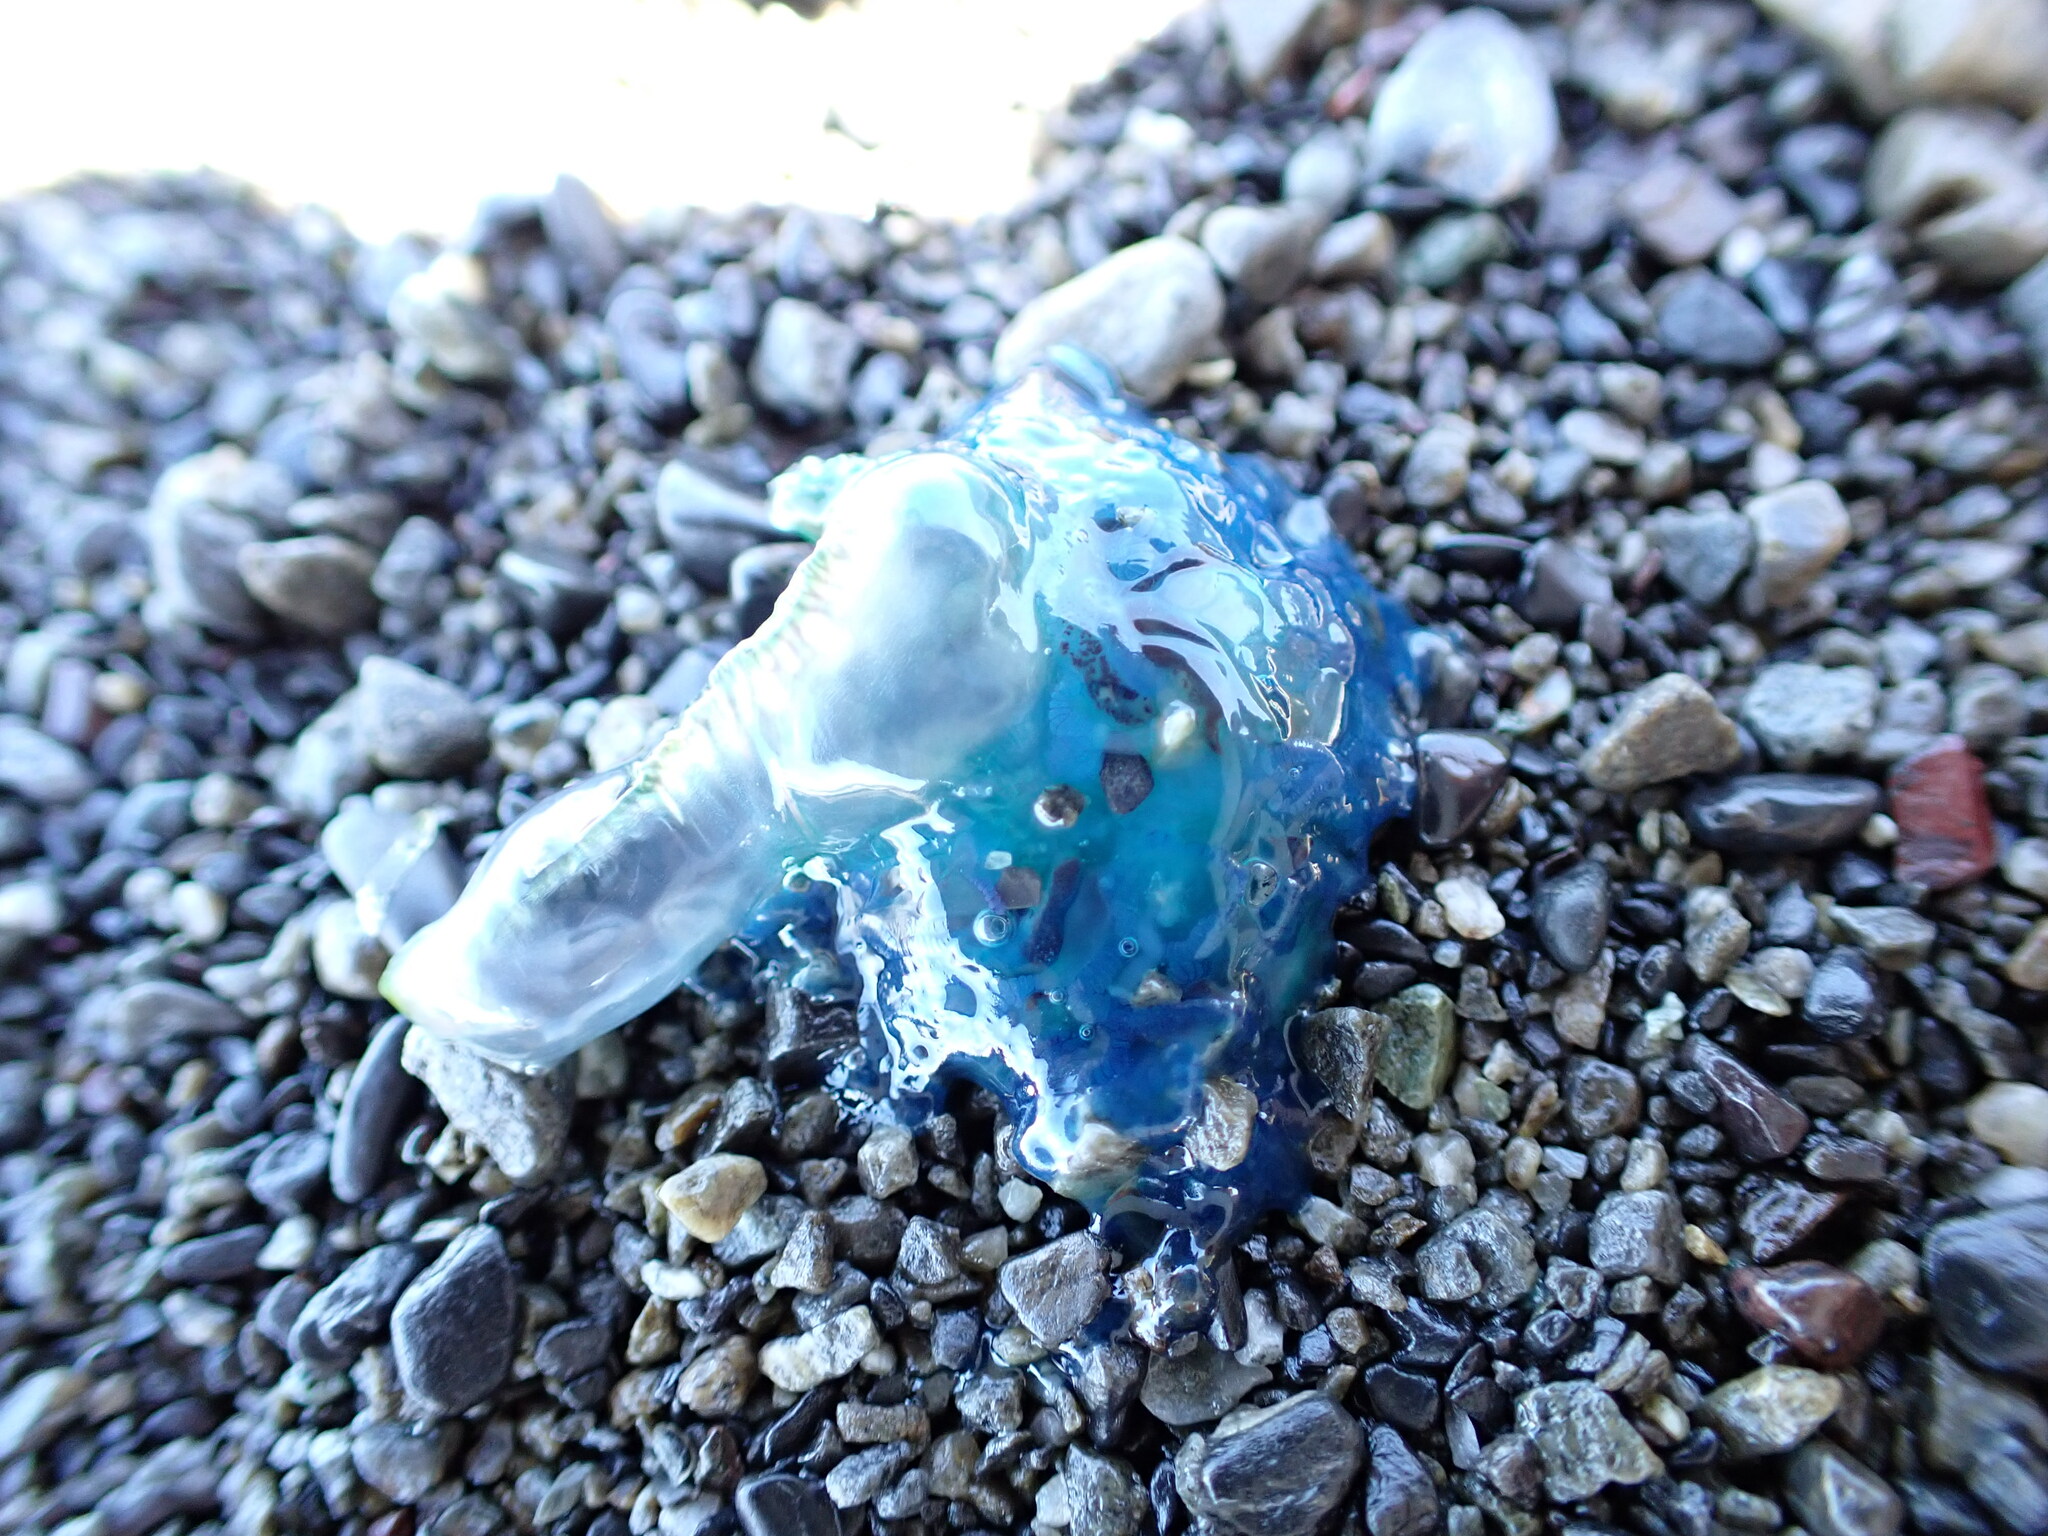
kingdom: Animalia
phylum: Cnidaria
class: Hydrozoa
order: Siphonophorae
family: Physaliidae
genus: Physalia
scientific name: Physalia physalis
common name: Portuguese man-of-war
